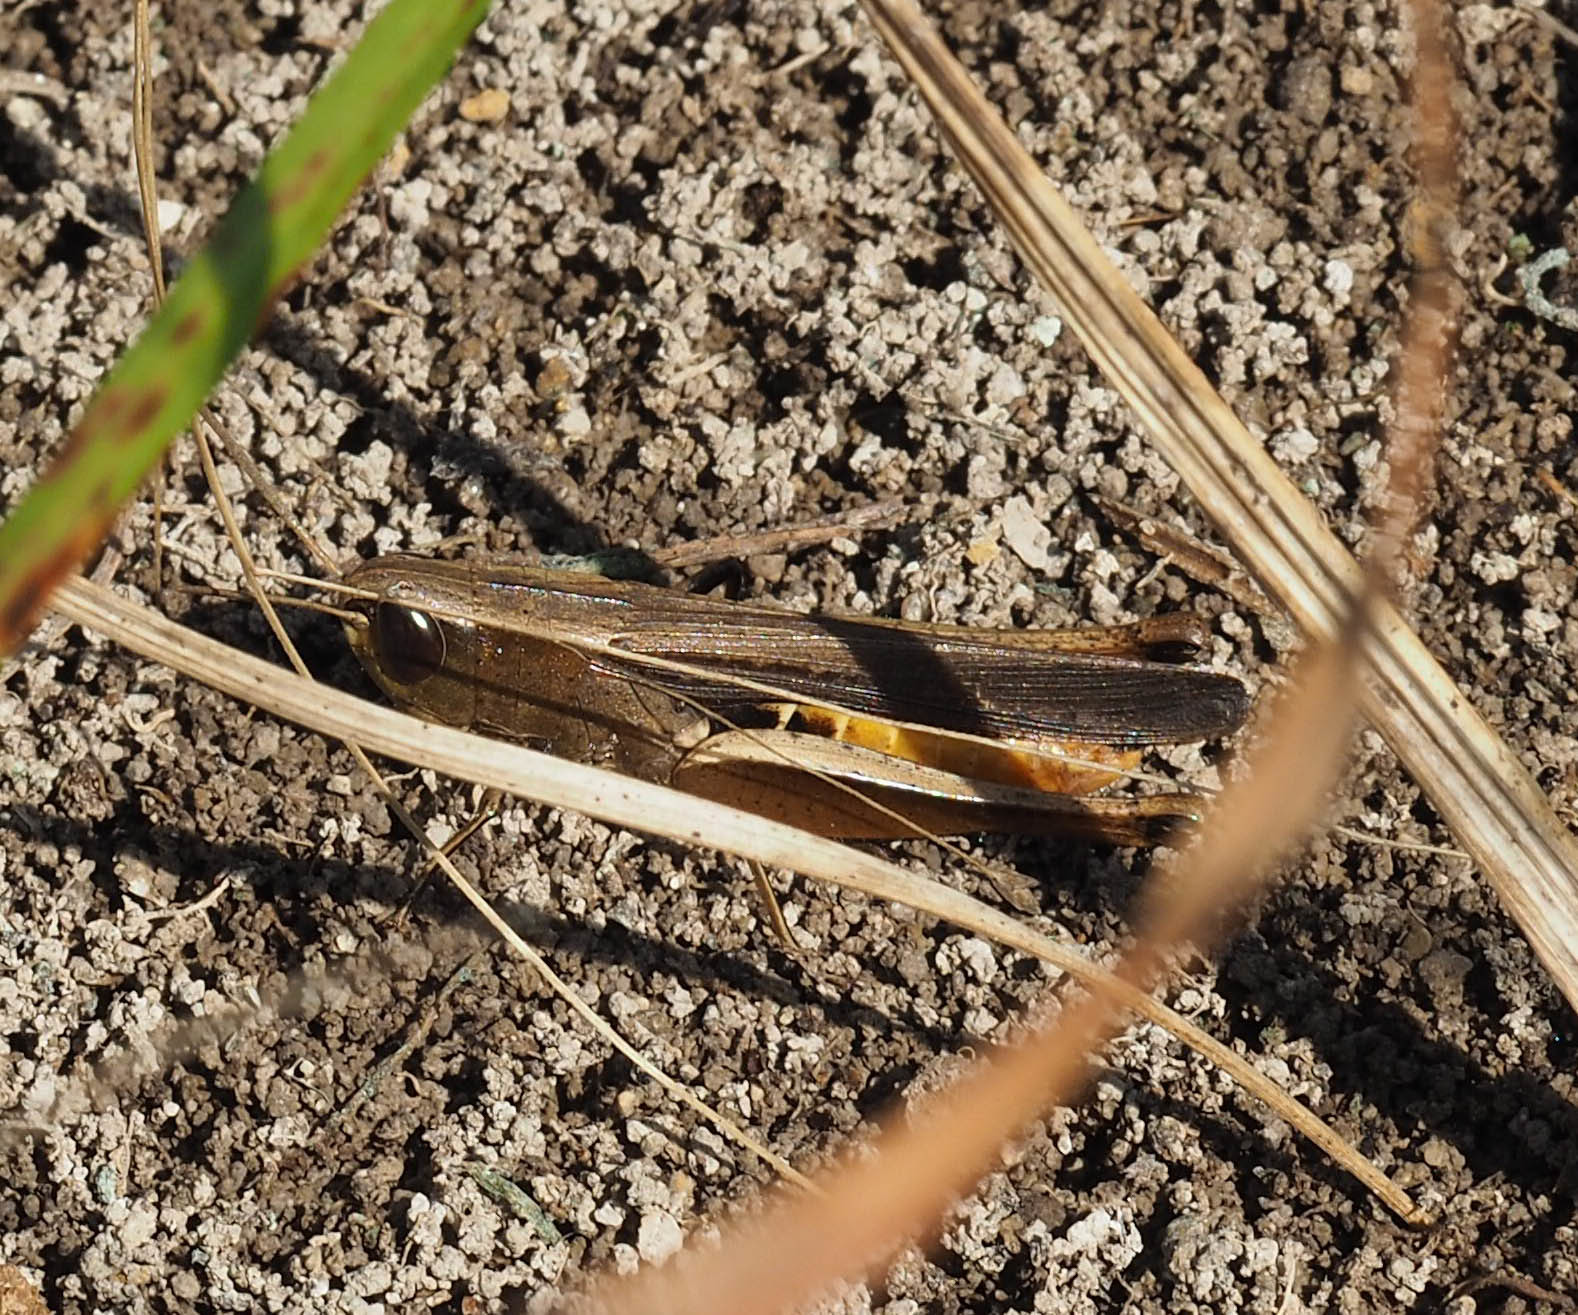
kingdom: Animalia
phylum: Arthropoda
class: Insecta
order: Orthoptera
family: Acrididae
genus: Amblytropidia
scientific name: Amblytropidia mysteca
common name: Brown winter grasshopper
